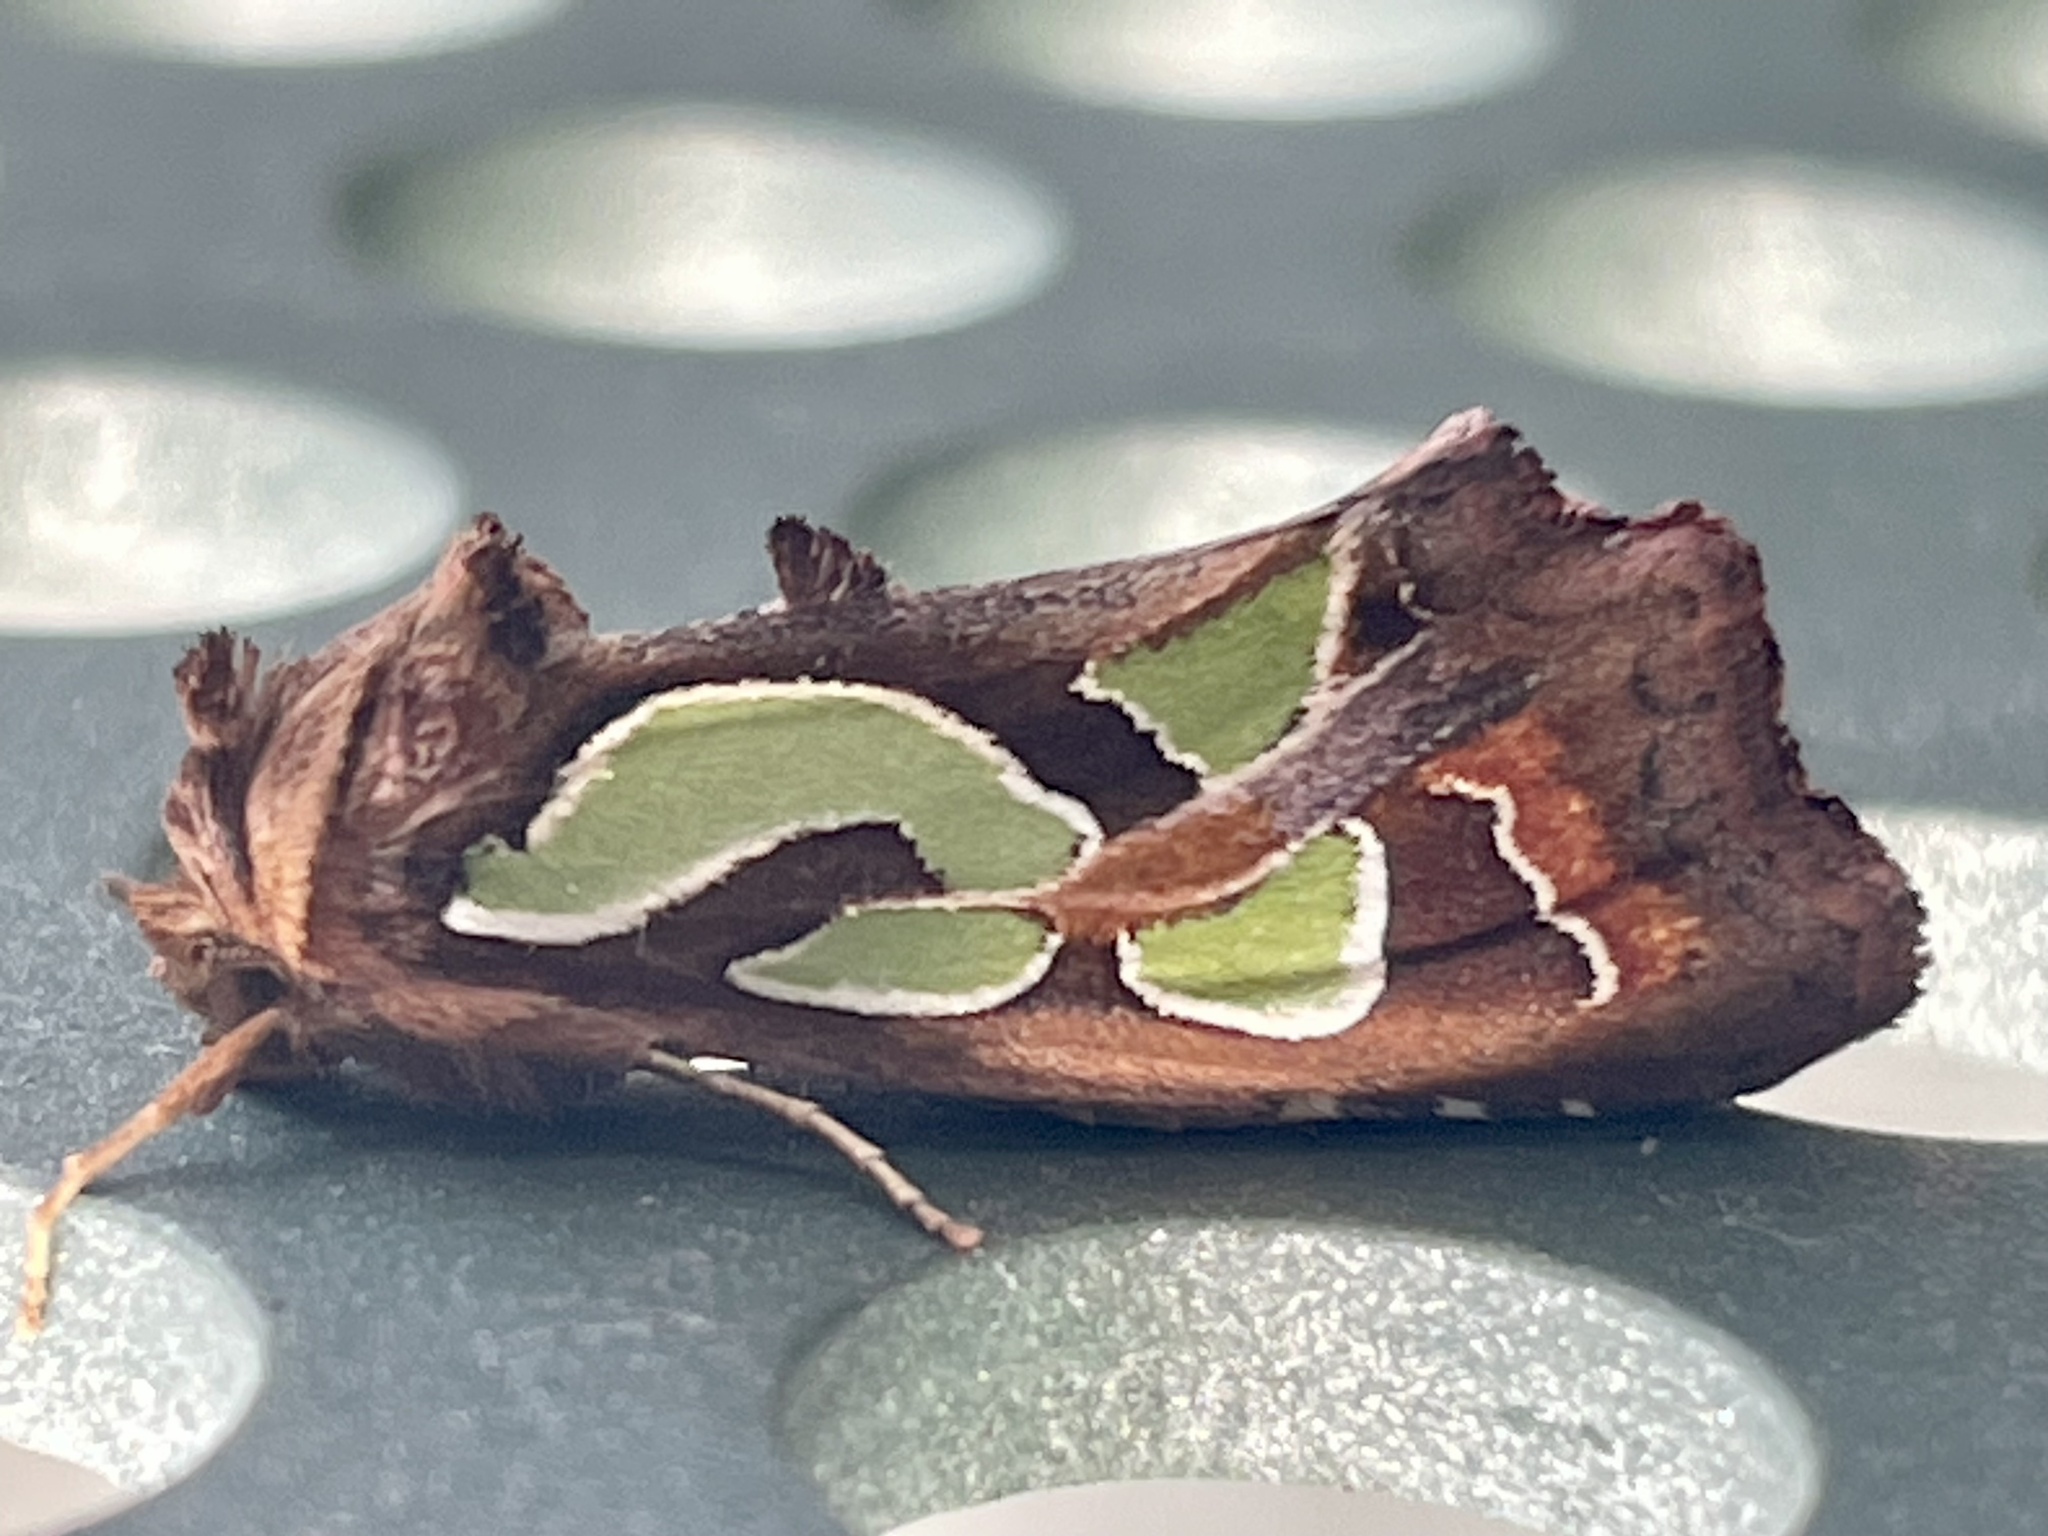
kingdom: Animalia
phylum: Arthropoda
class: Insecta
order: Lepidoptera
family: Noctuidae
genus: Cosmodes
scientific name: Cosmodes elegans
